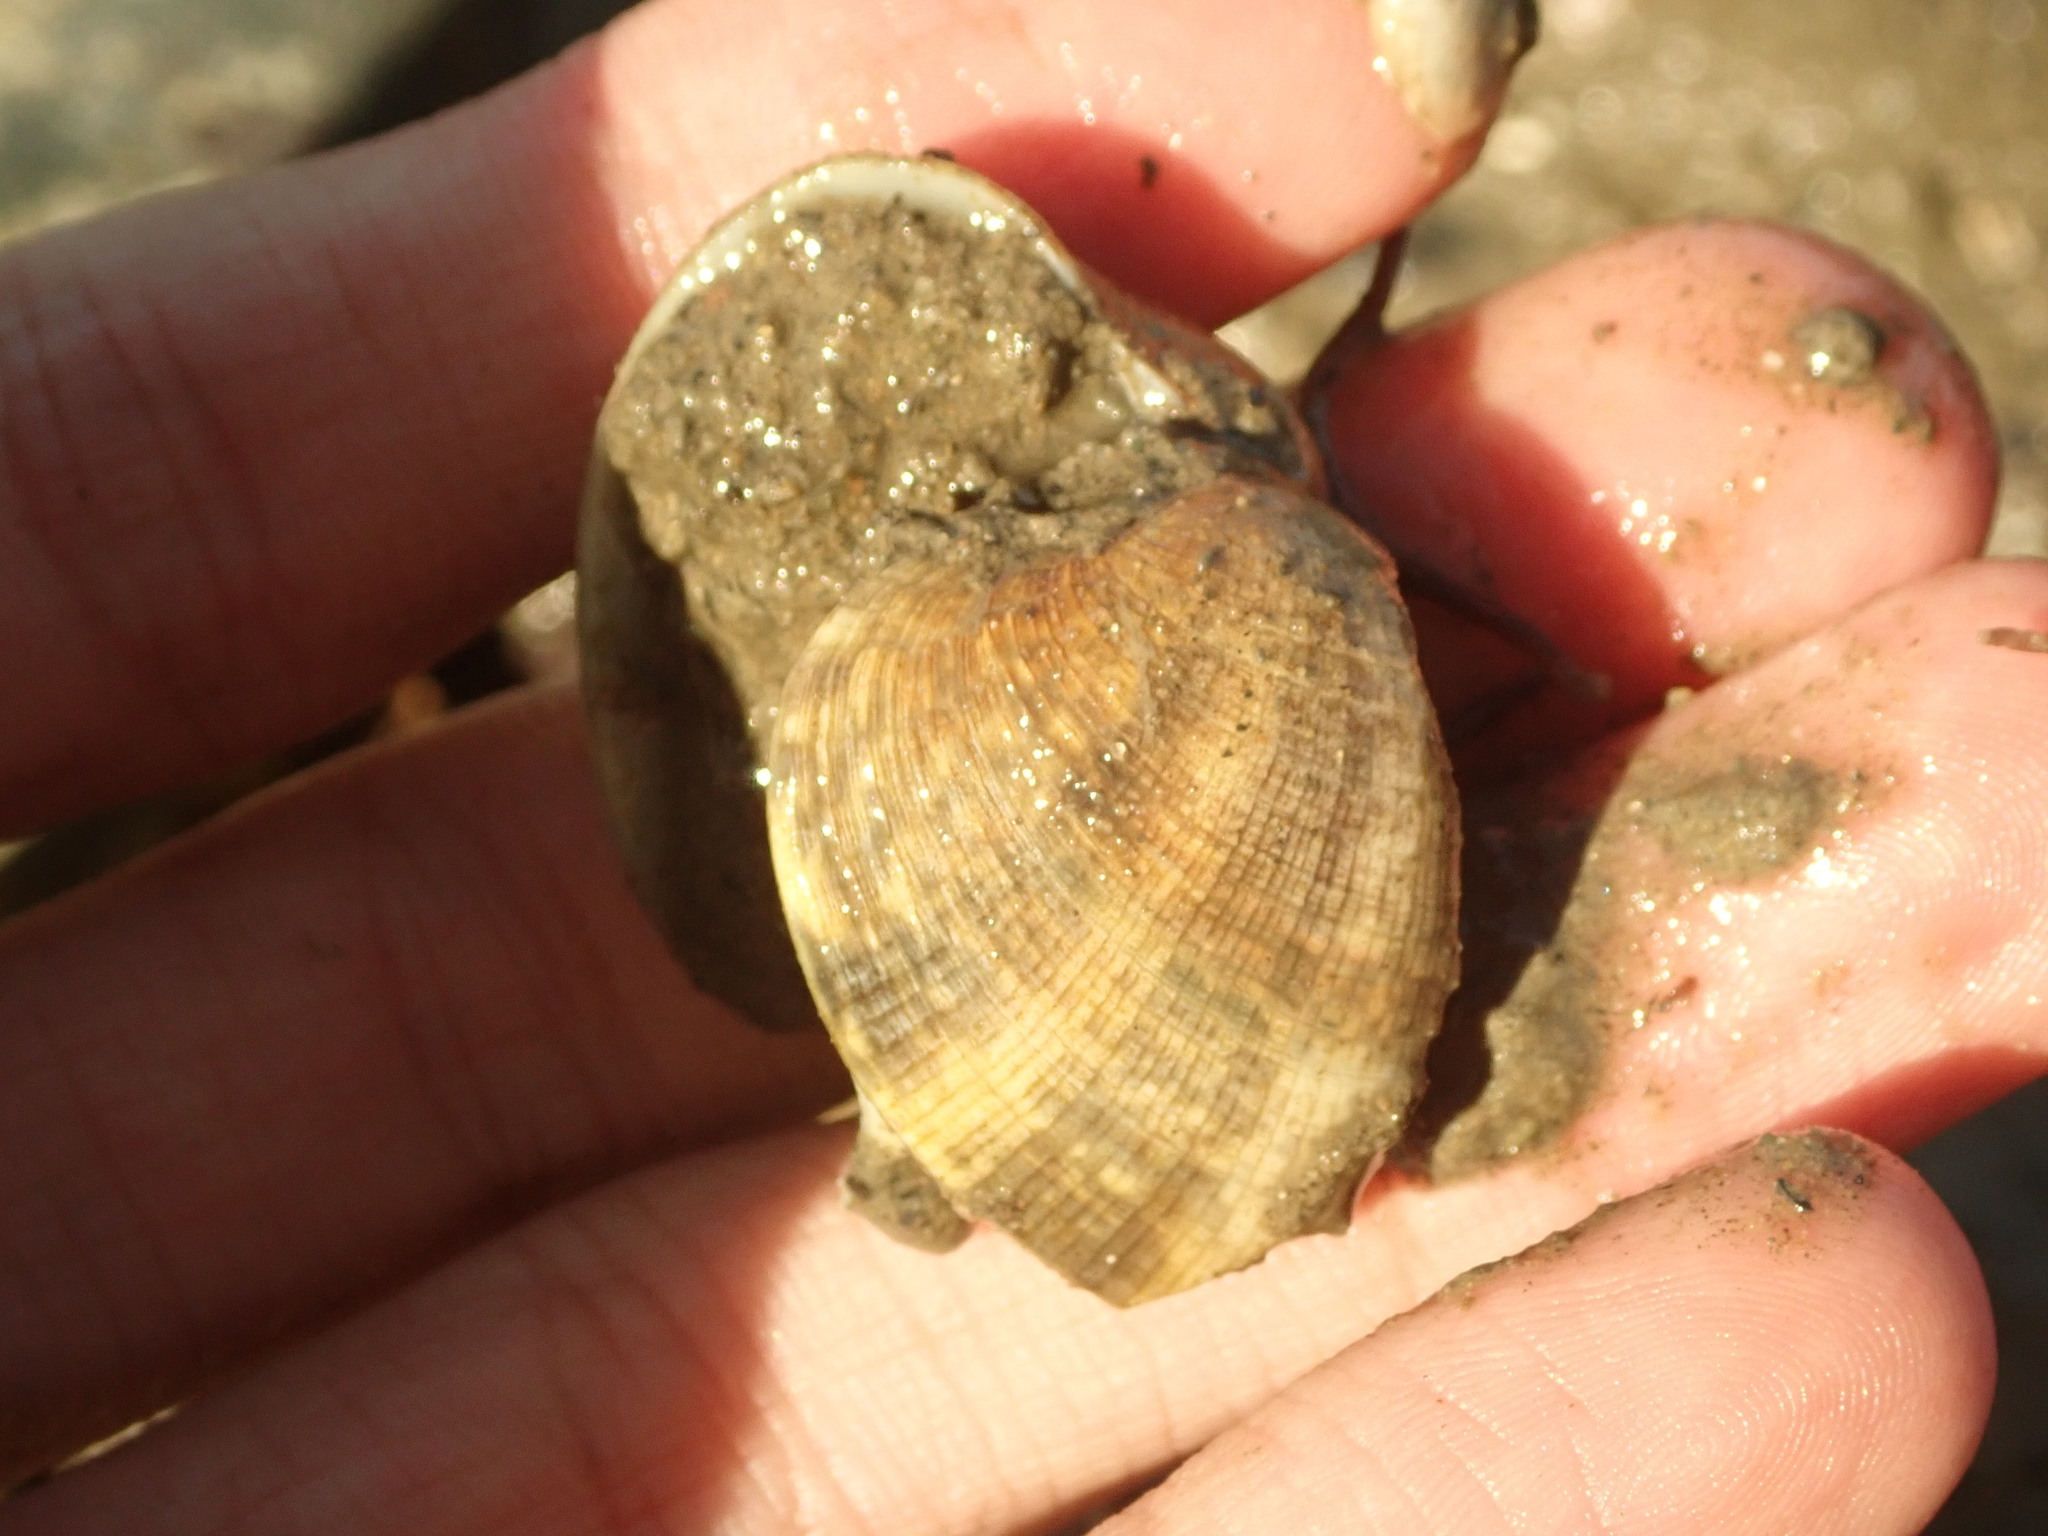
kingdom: Animalia
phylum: Mollusca
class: Bivalvia
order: Venerida
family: Veneridae
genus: Ruditapes
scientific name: Ruditapes philippinarum
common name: Manila clam
